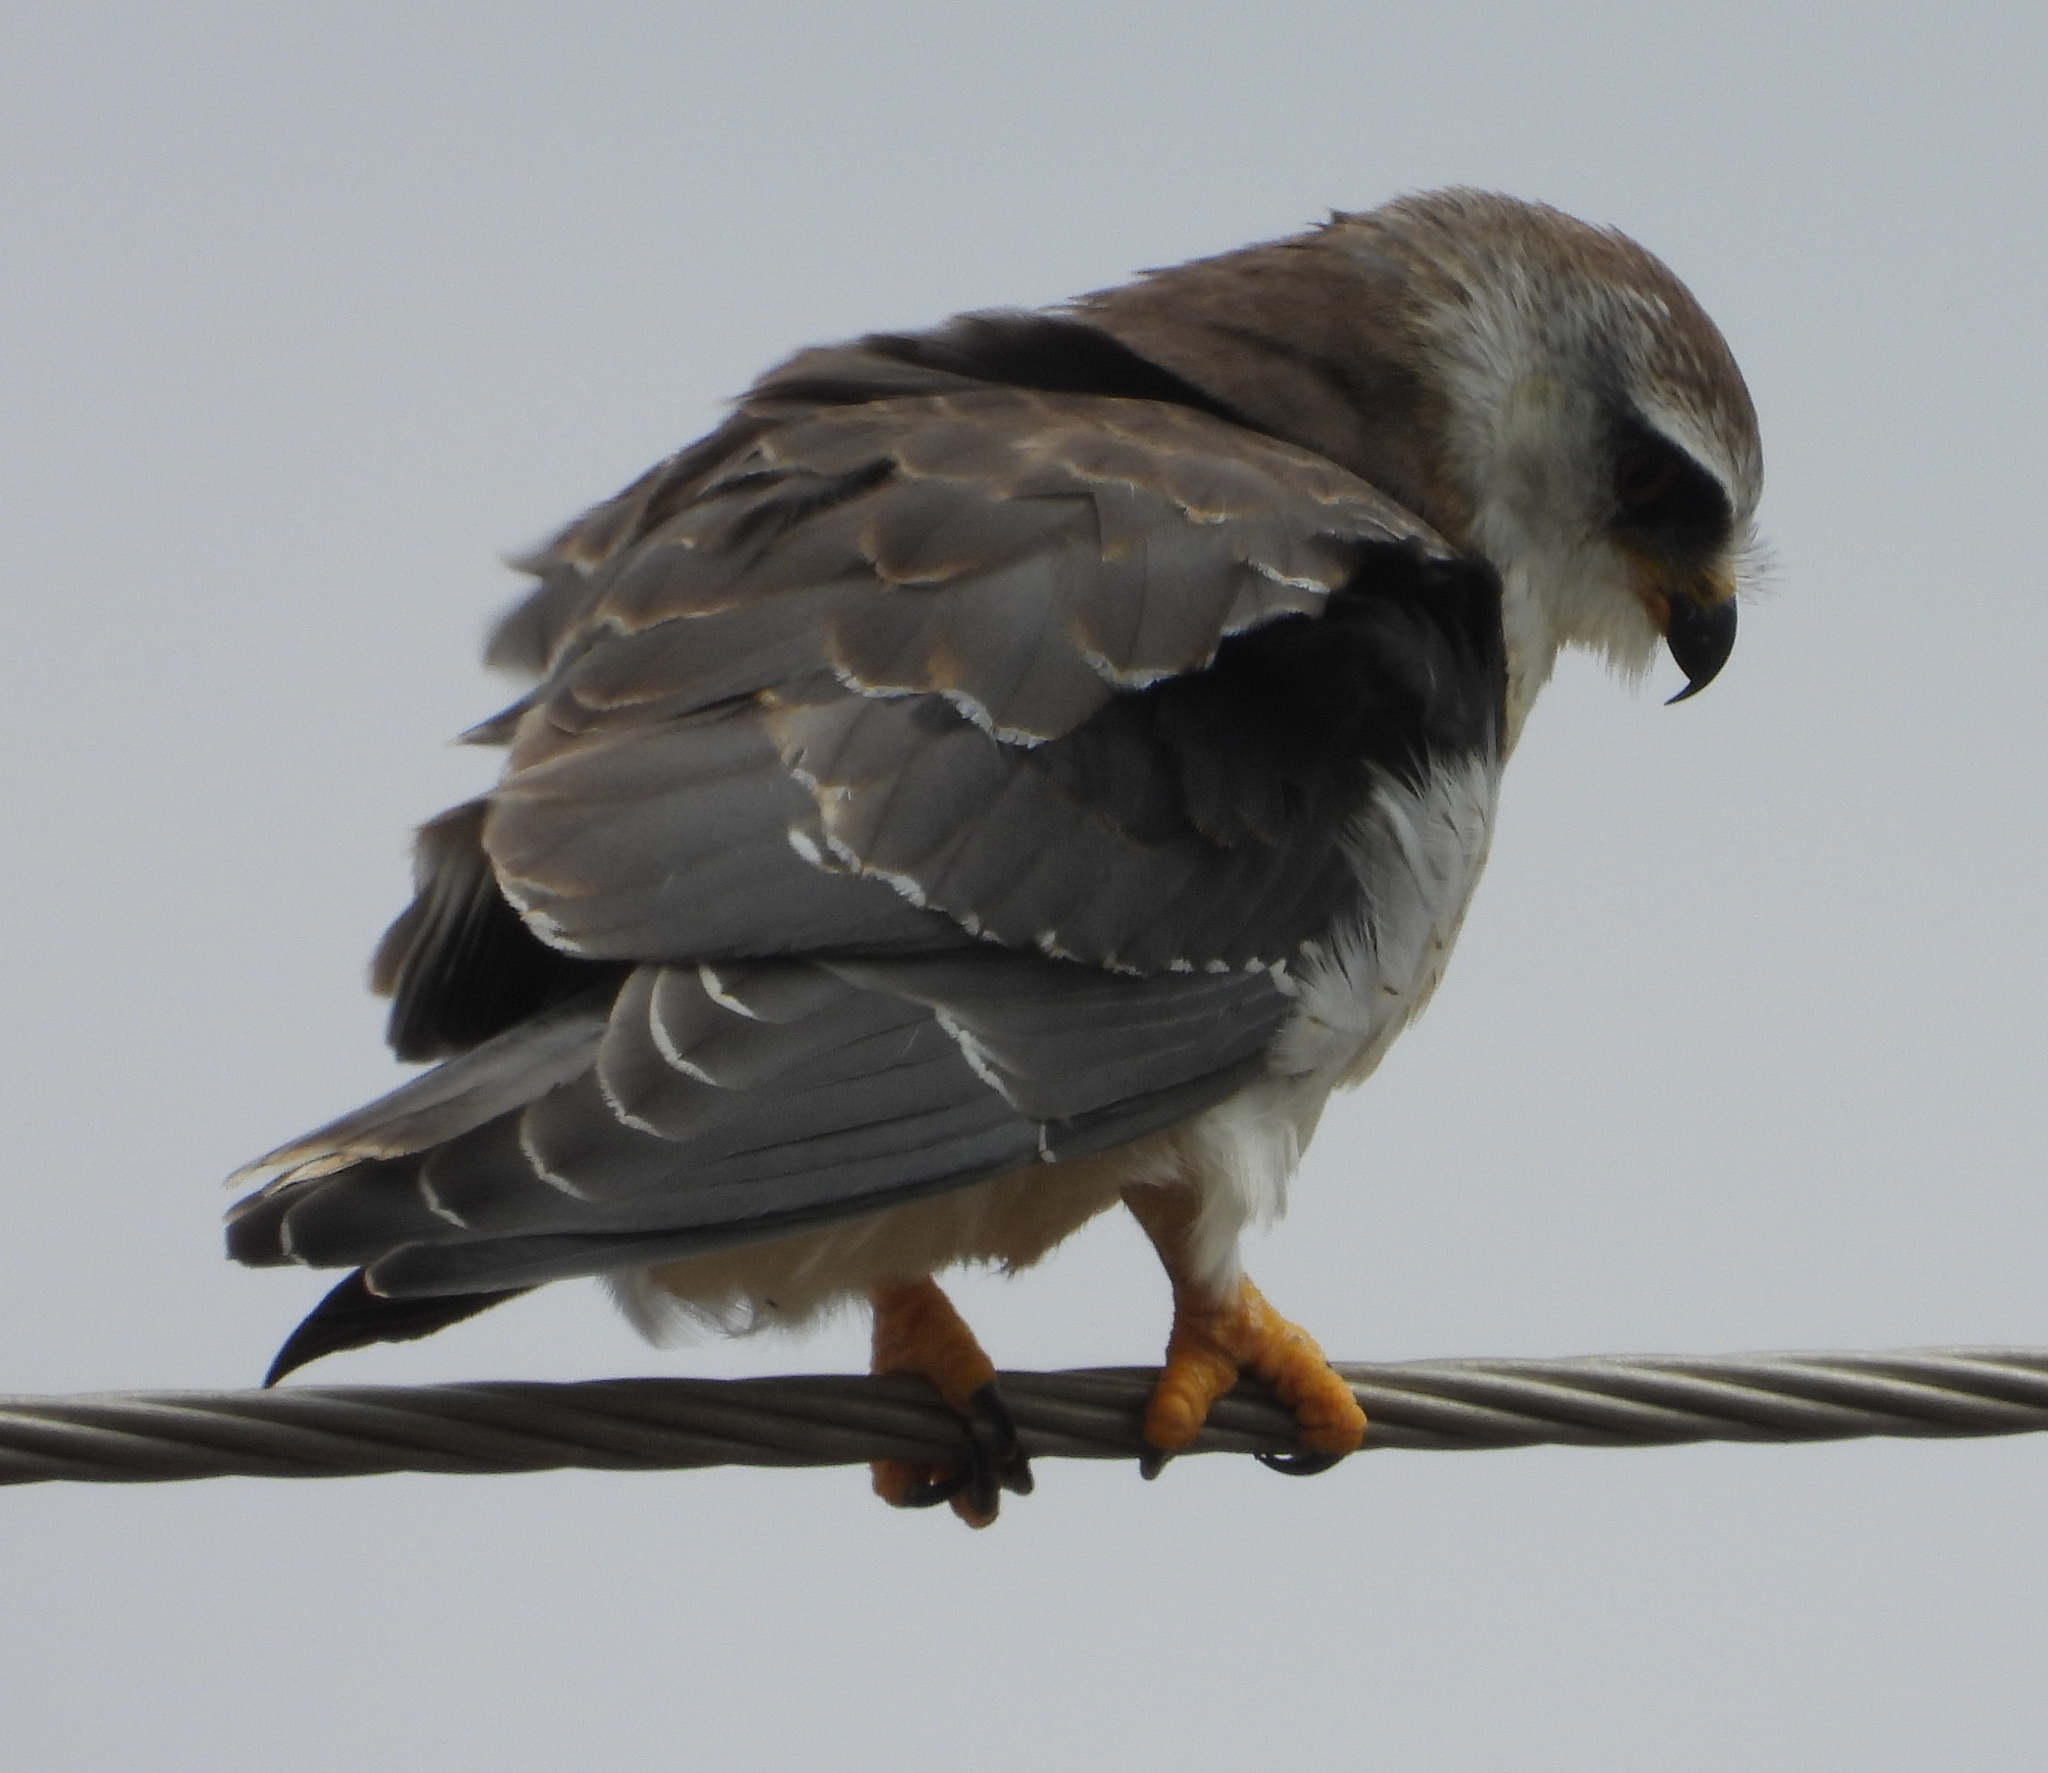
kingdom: Animalia
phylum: Chordata
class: Aves
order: Accipitriformes
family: Accipitridae
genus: Elanus
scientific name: Elanus caeruleus
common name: Black-winged kite
